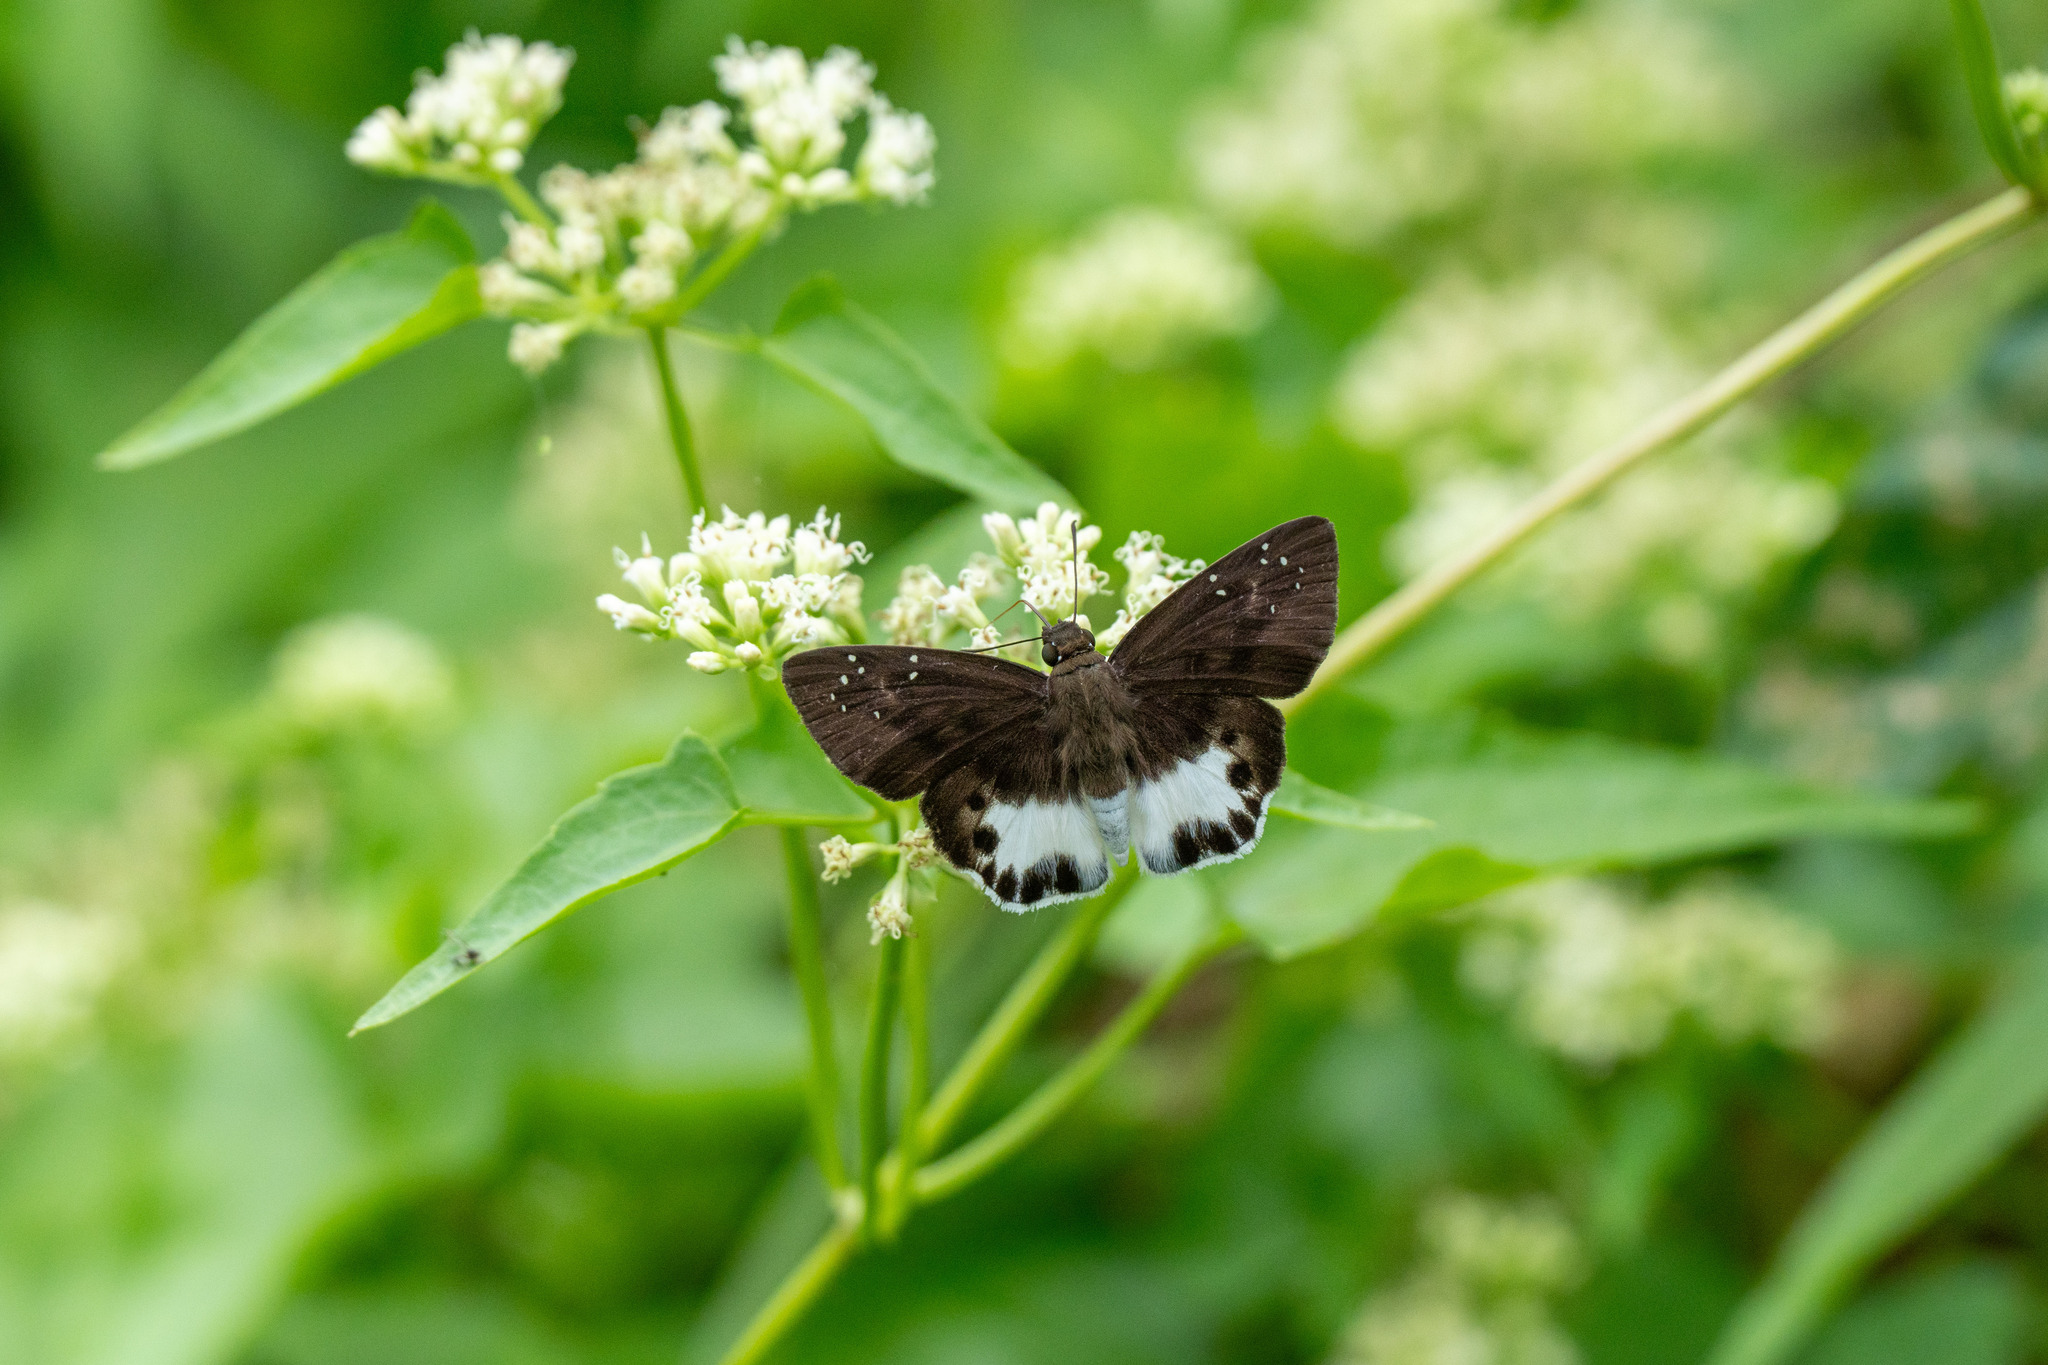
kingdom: Animalia
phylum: Arthropoda
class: Insecta
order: Lepidoptera
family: Hesperiidae
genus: Tagiades
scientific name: Tagiades litigiosa
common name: Water snow flat
